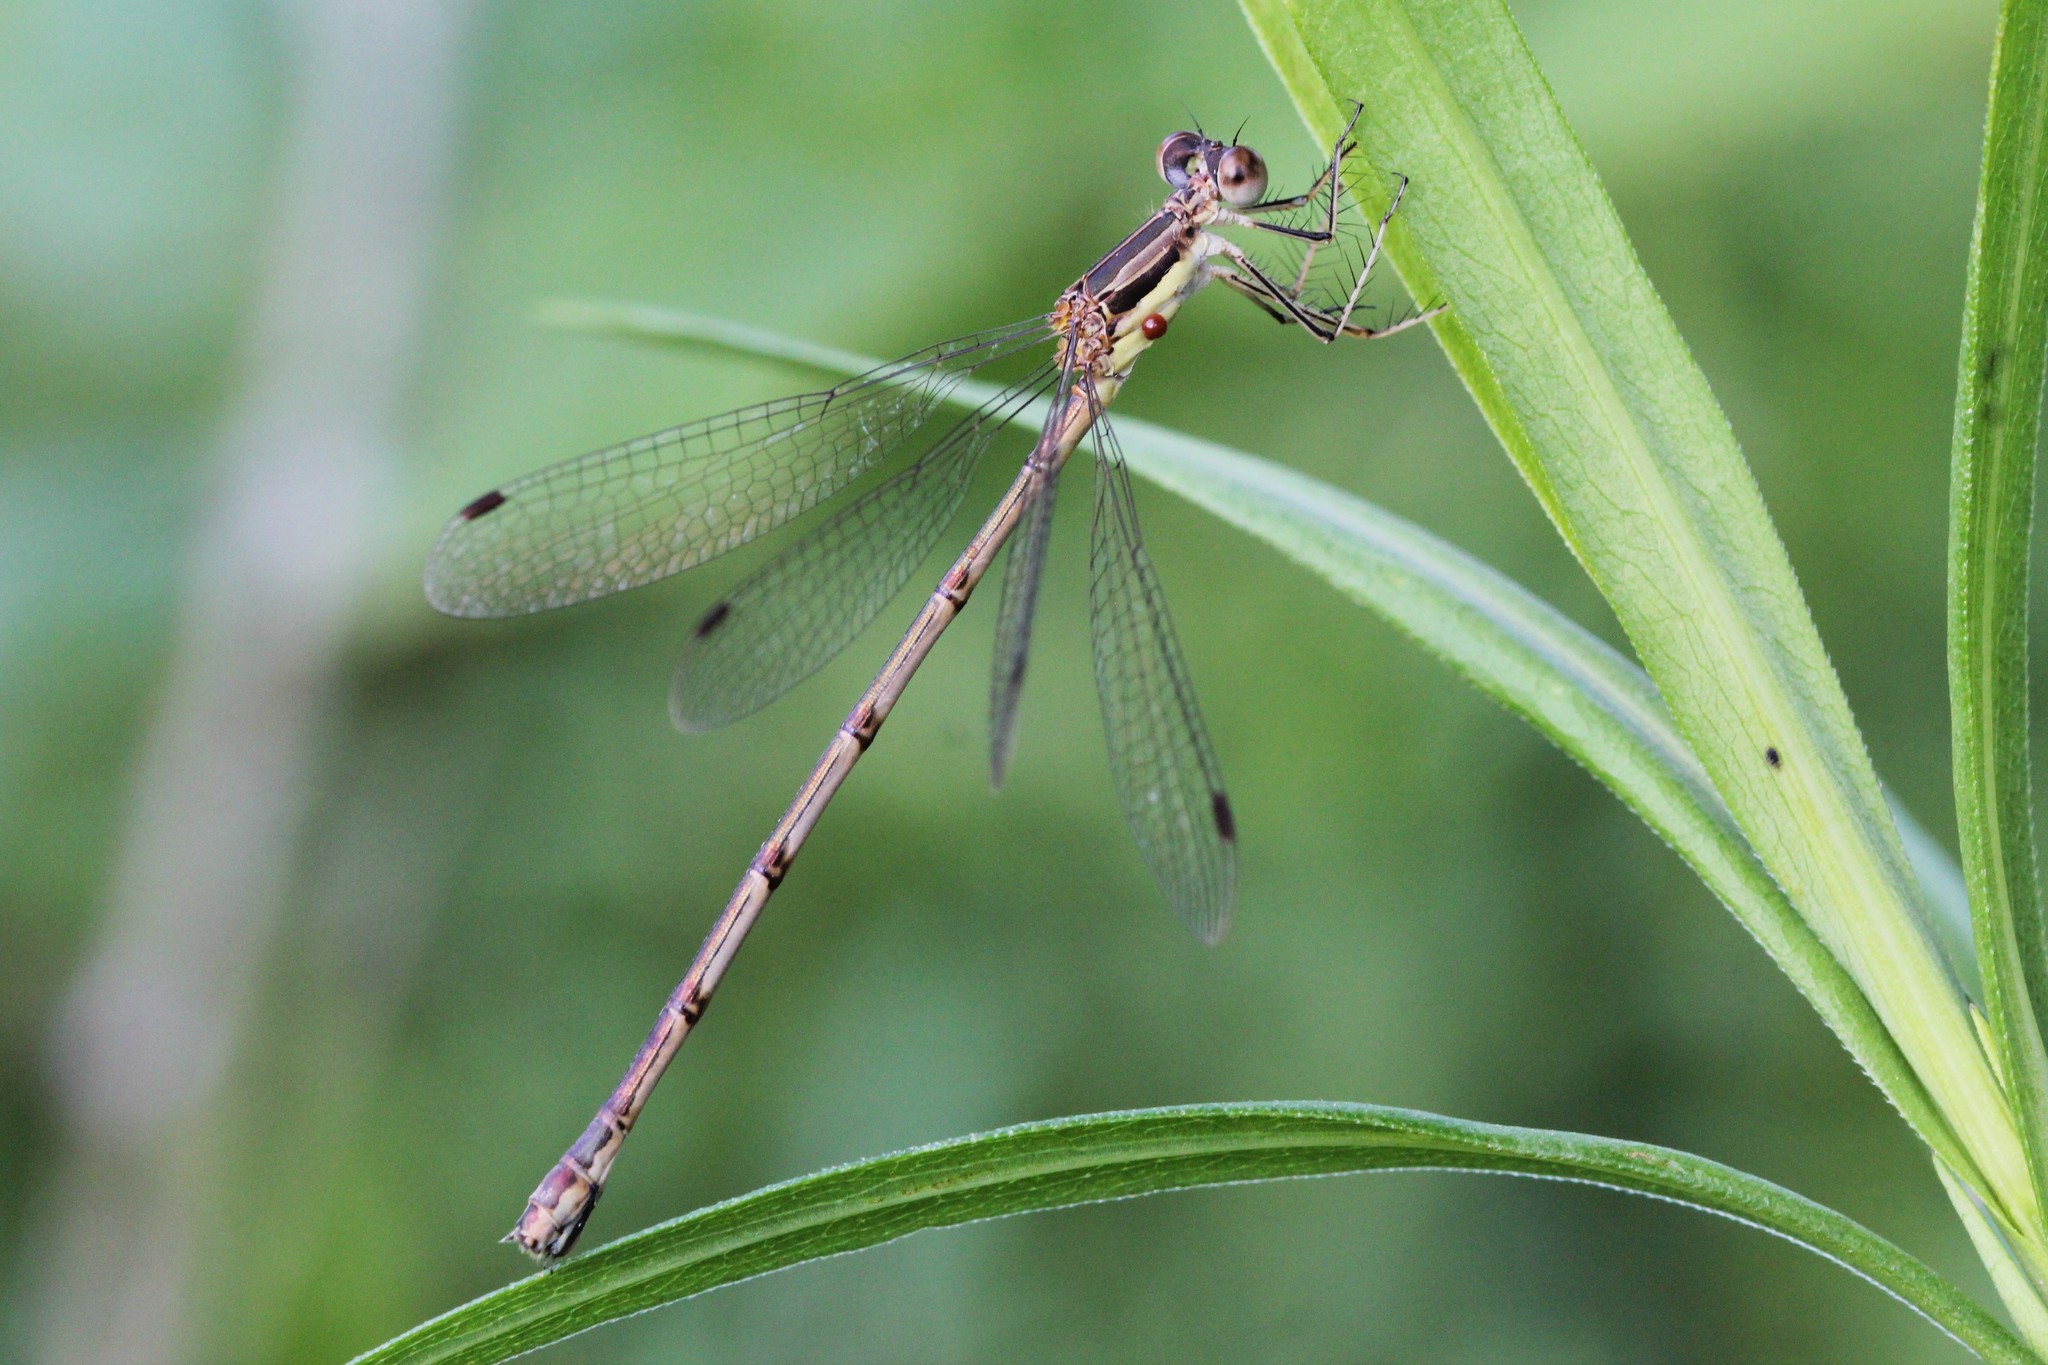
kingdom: Animalia
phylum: Arthropoda
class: Insecta
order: Odonata
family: Lestidae
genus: Lestes
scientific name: Lestes rectangularis
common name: Slender spreadwing
